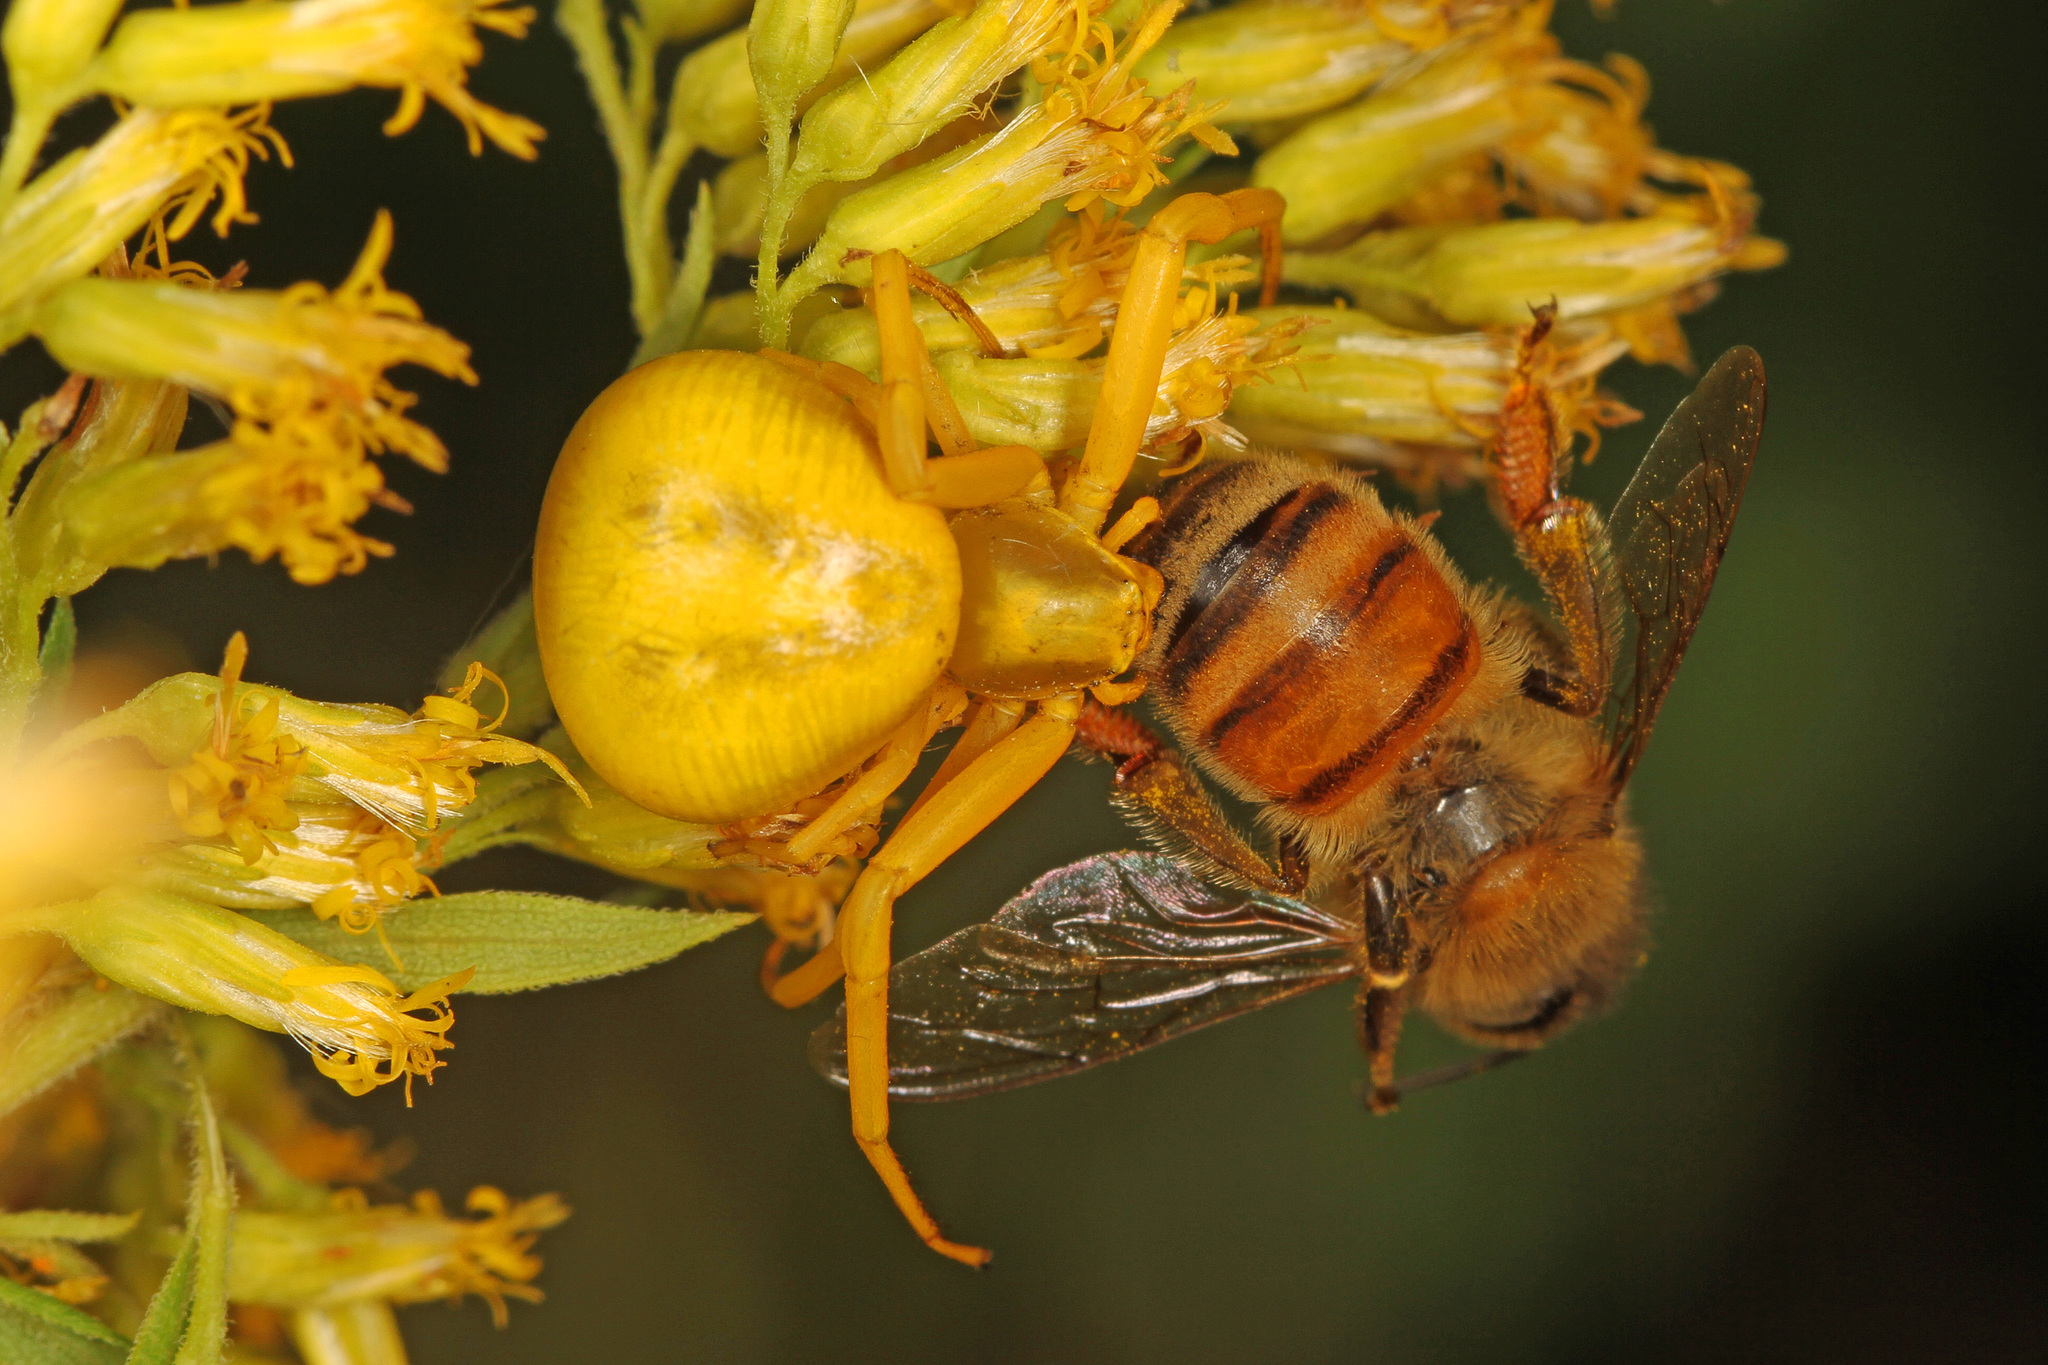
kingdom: Animalia
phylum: Arthropoda
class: Arachnida
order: Araneae
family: Thomisidae
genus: Misumenoides
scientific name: Misumenoides formosipes
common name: White-banded crab spider
